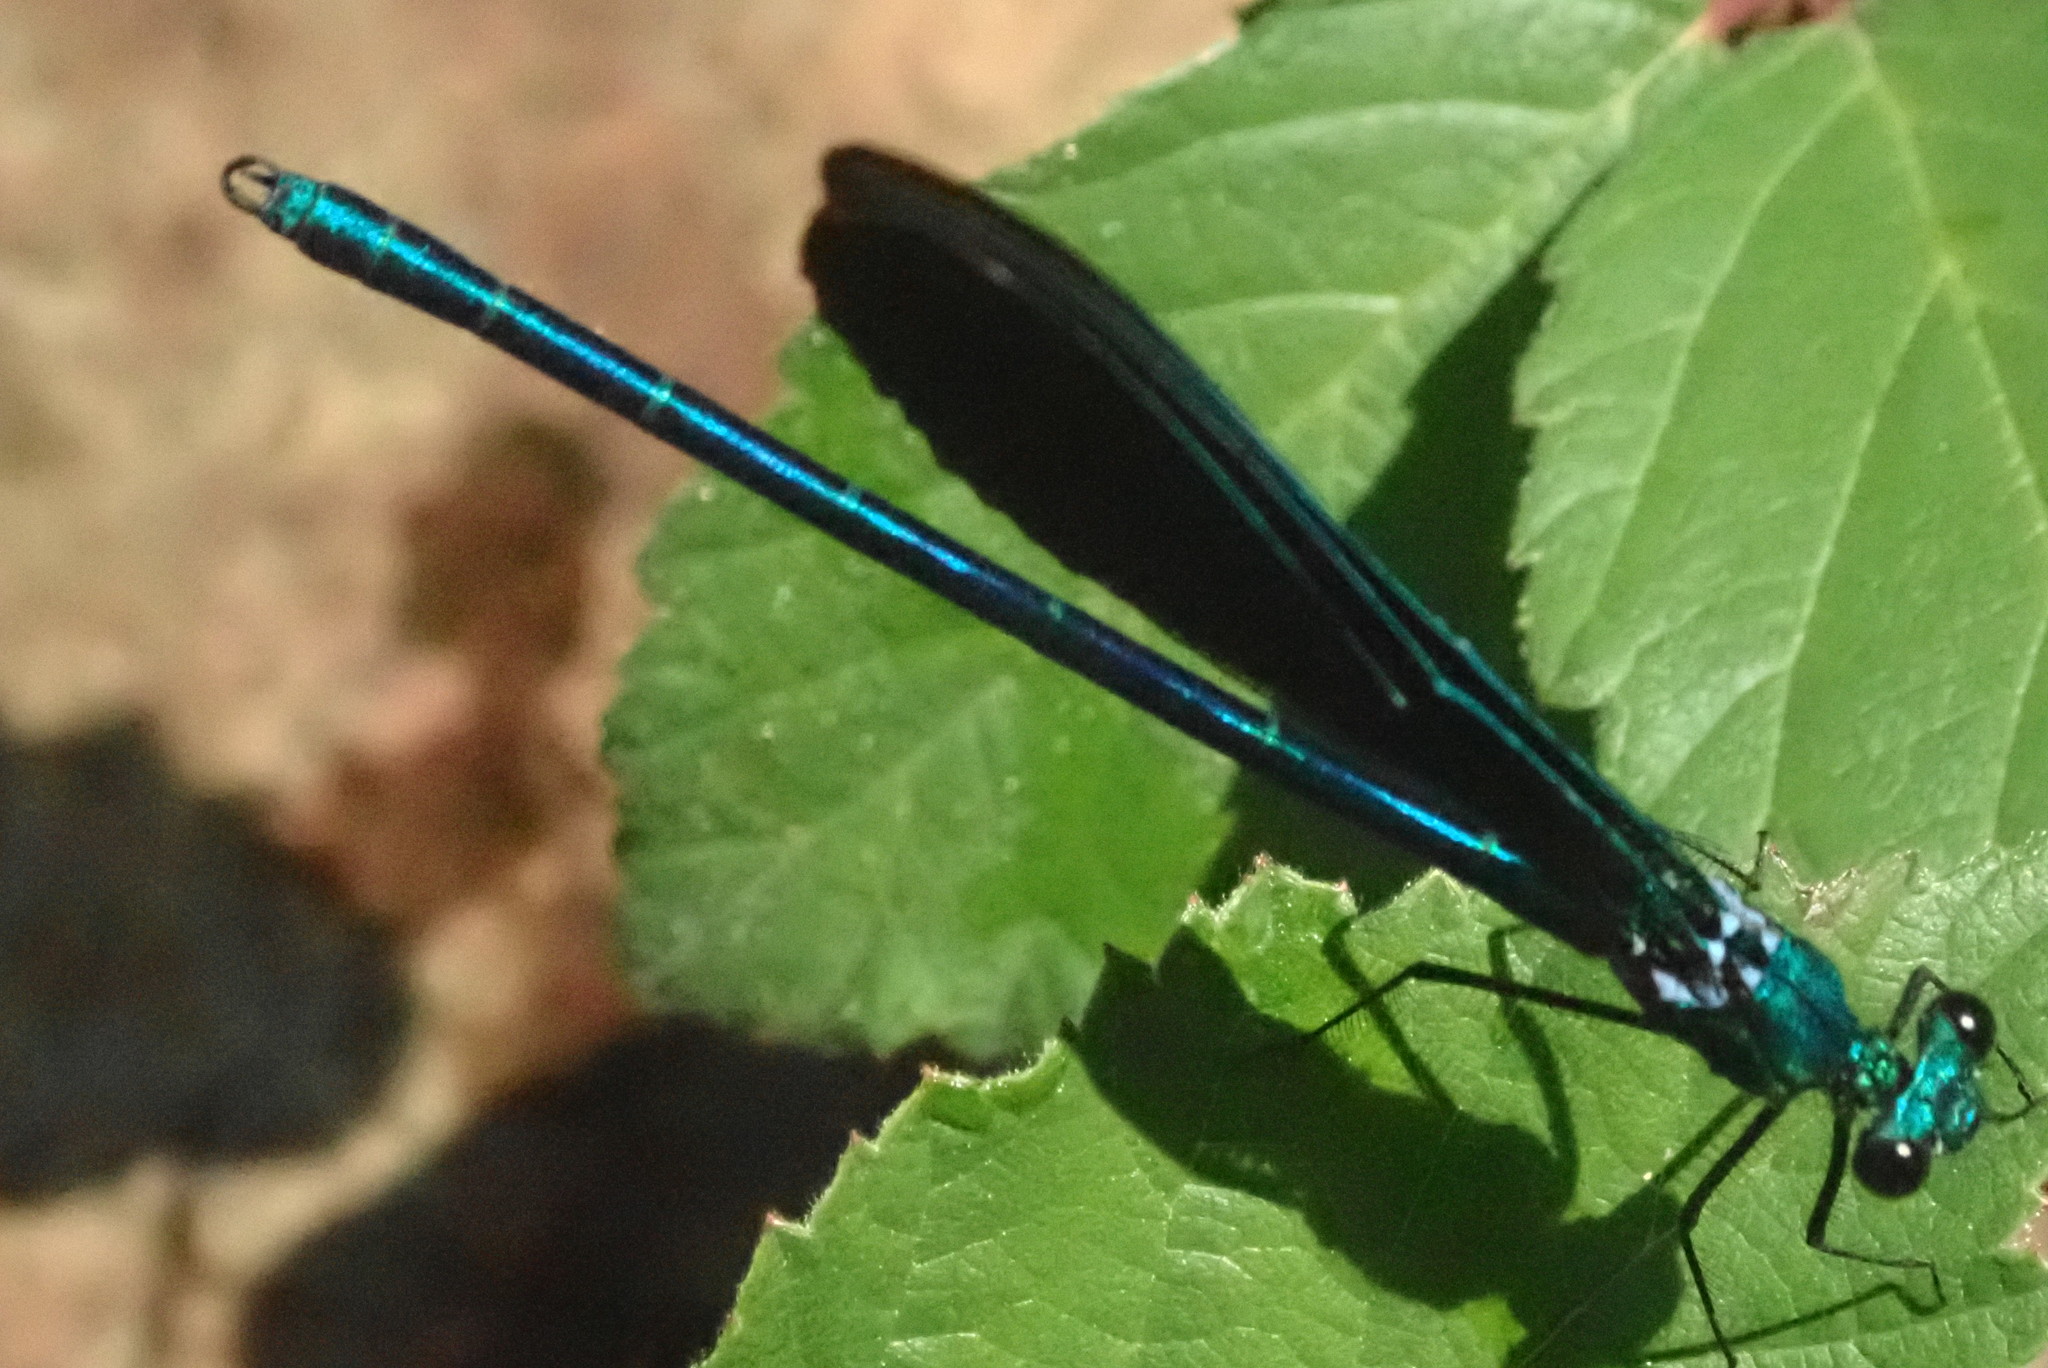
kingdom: Animalia
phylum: Arthropoda
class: Insecta
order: Odonata
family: Calopterygidae
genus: Calopteryx
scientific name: Calopteryx virgo
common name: Beautiful demoiselle
